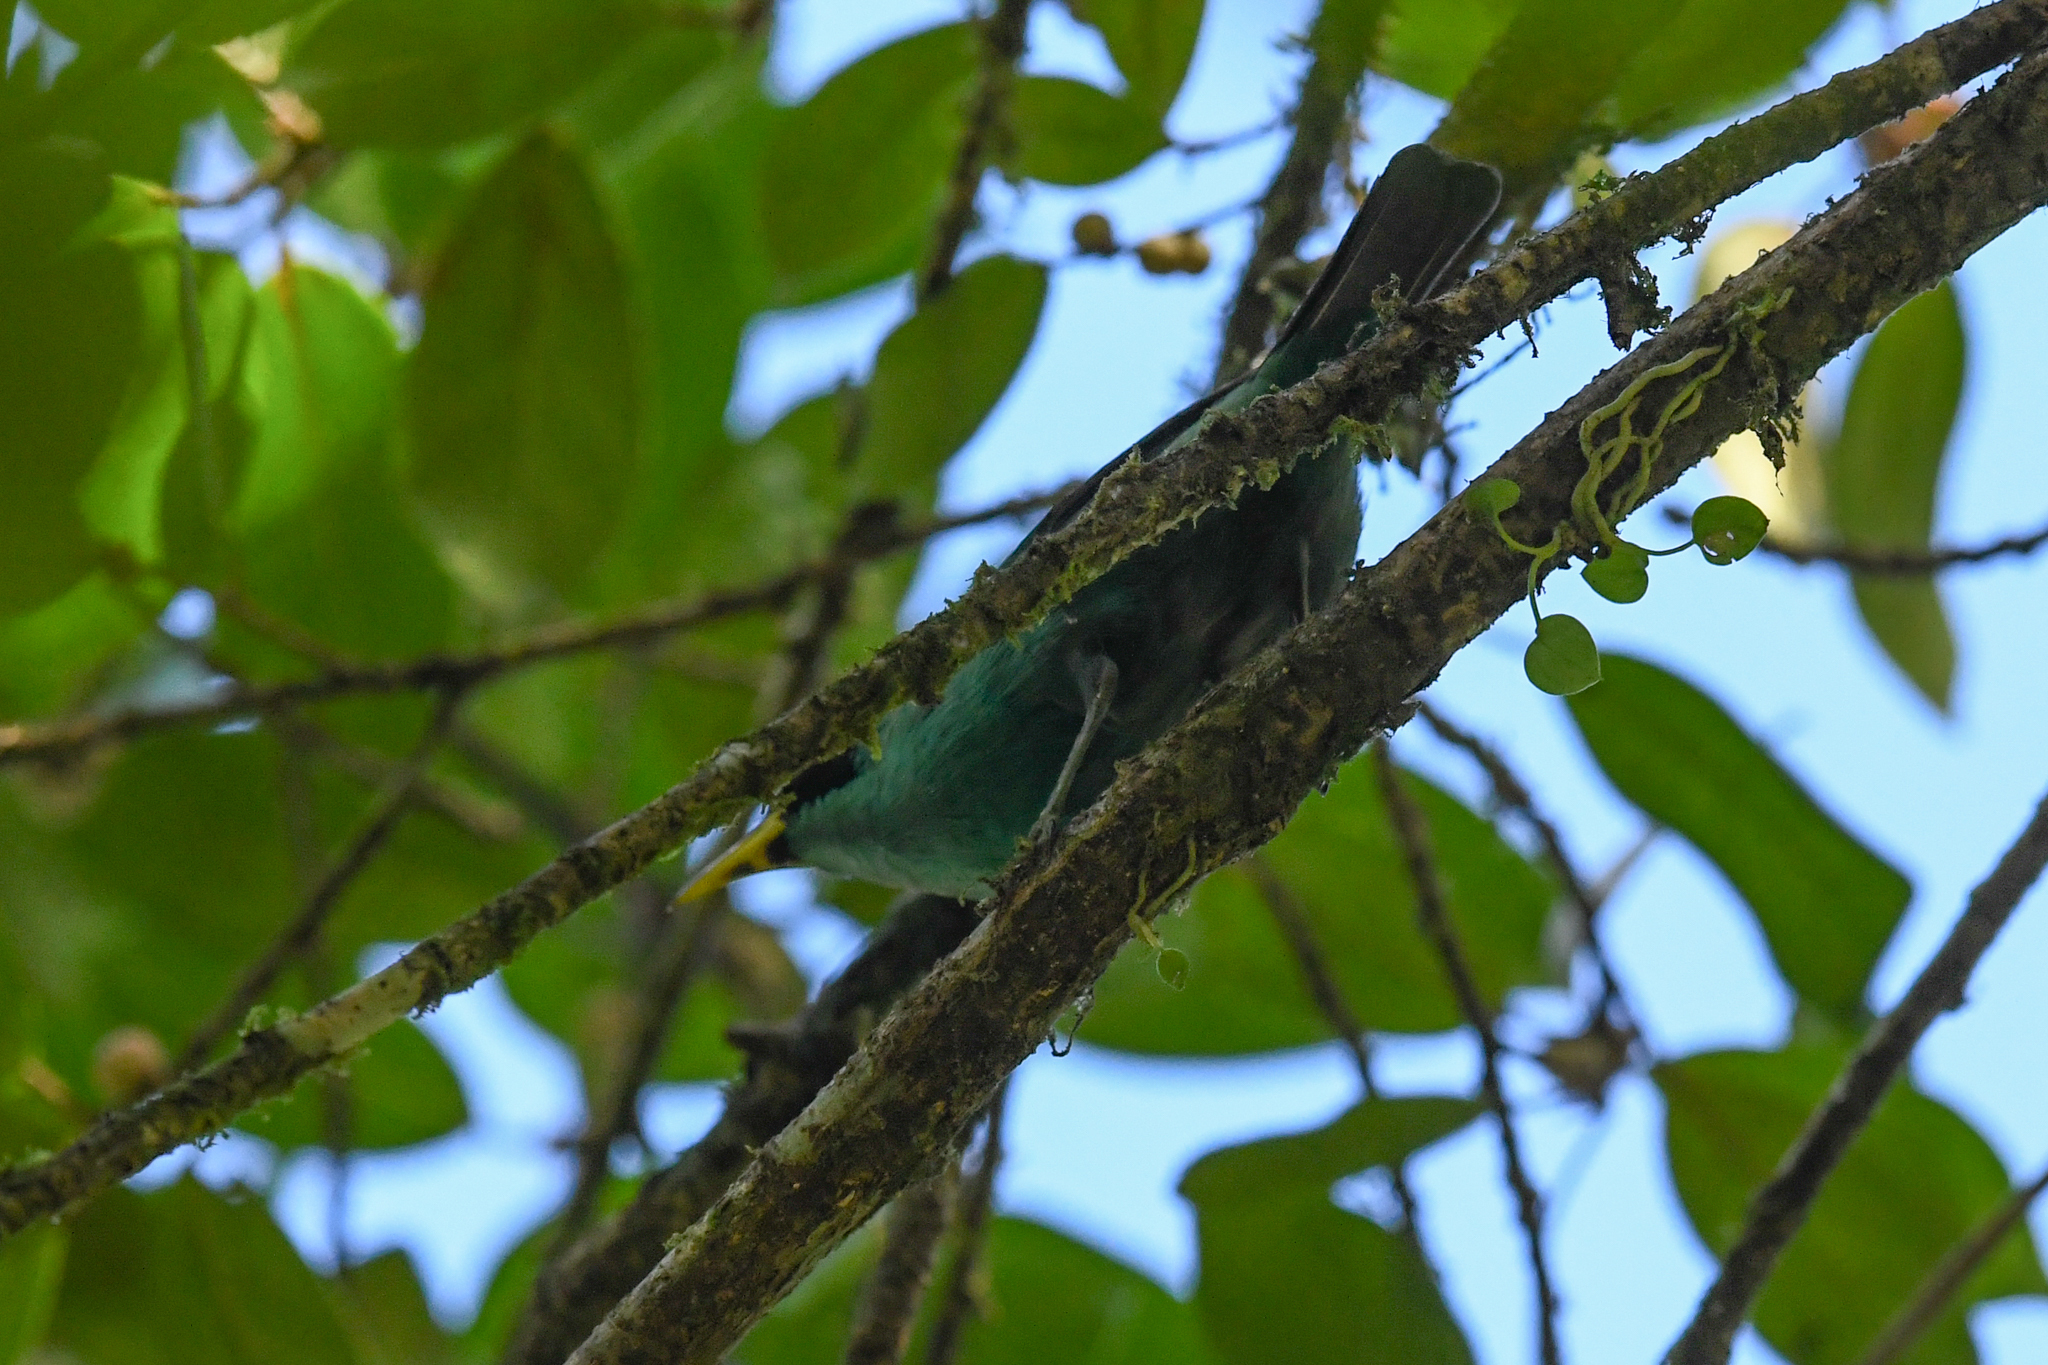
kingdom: Animalia
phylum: Chordata
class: Aves
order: Passeriformes
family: Thraupidae
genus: Chlorophanes
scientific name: Chlorophanes spiza
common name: Green honeycreeper
